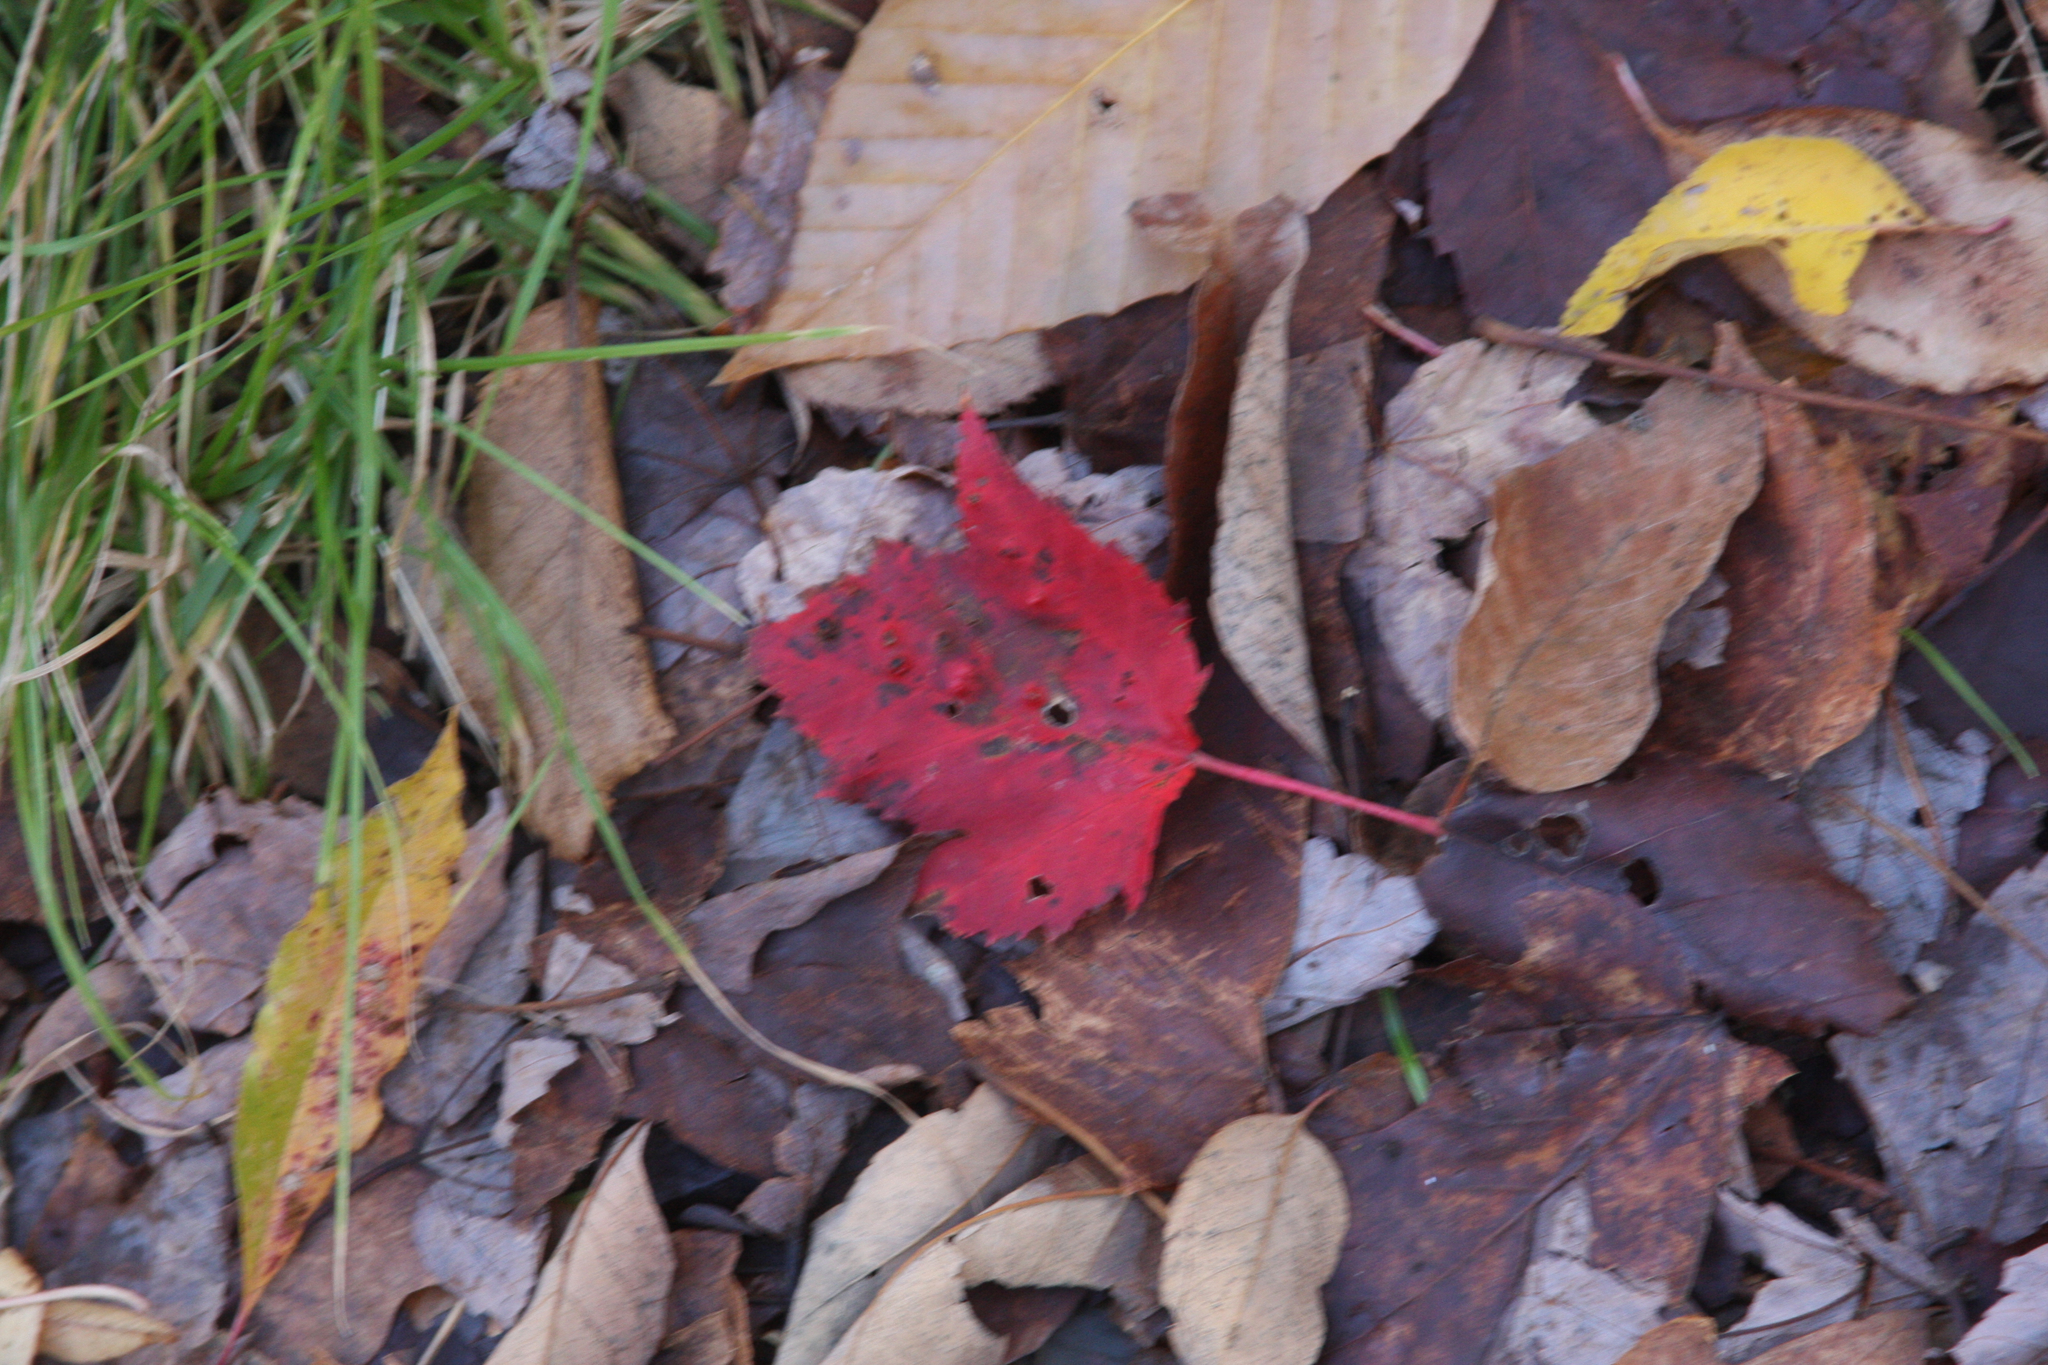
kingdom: Plantae
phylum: Tracheophyta
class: Magnoliopsida
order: Sapindales
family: Sapindaceae
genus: Acer
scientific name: Acer rubrum
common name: Red maple
